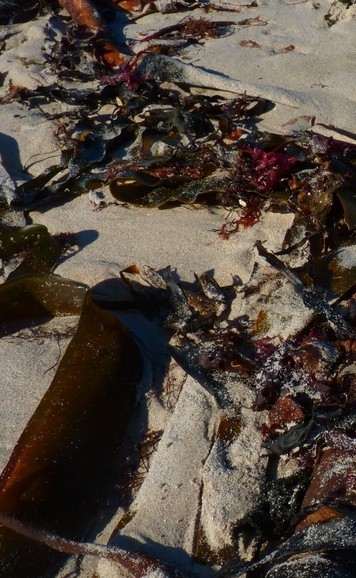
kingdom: Chromista
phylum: Ochrophyta
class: Phaeophyceae
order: Laminariales
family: Lessoniaceae
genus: Ecklonia
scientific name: Ecklonia
